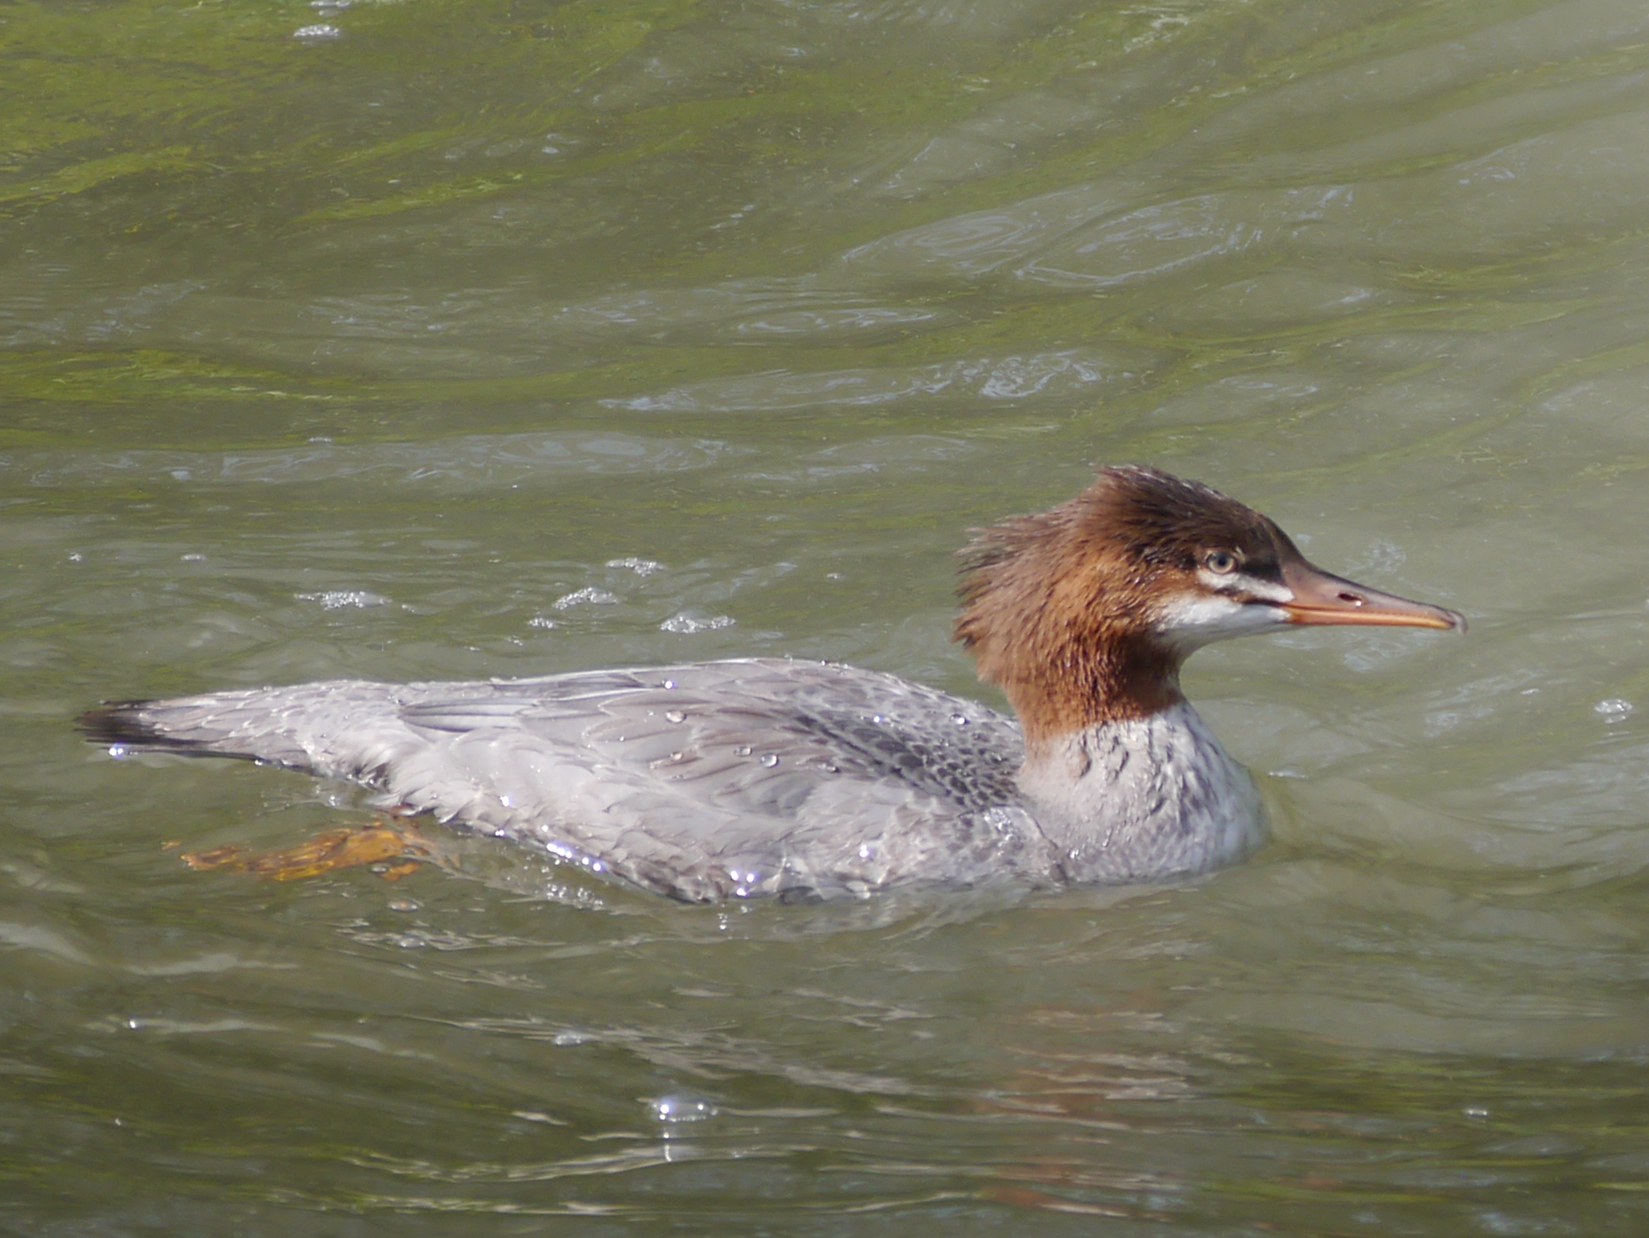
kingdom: Animalia
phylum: Chordata
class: Aves
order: Anseriformes
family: Anatidae
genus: Mergus
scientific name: Mergus merganser
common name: Common merganser
